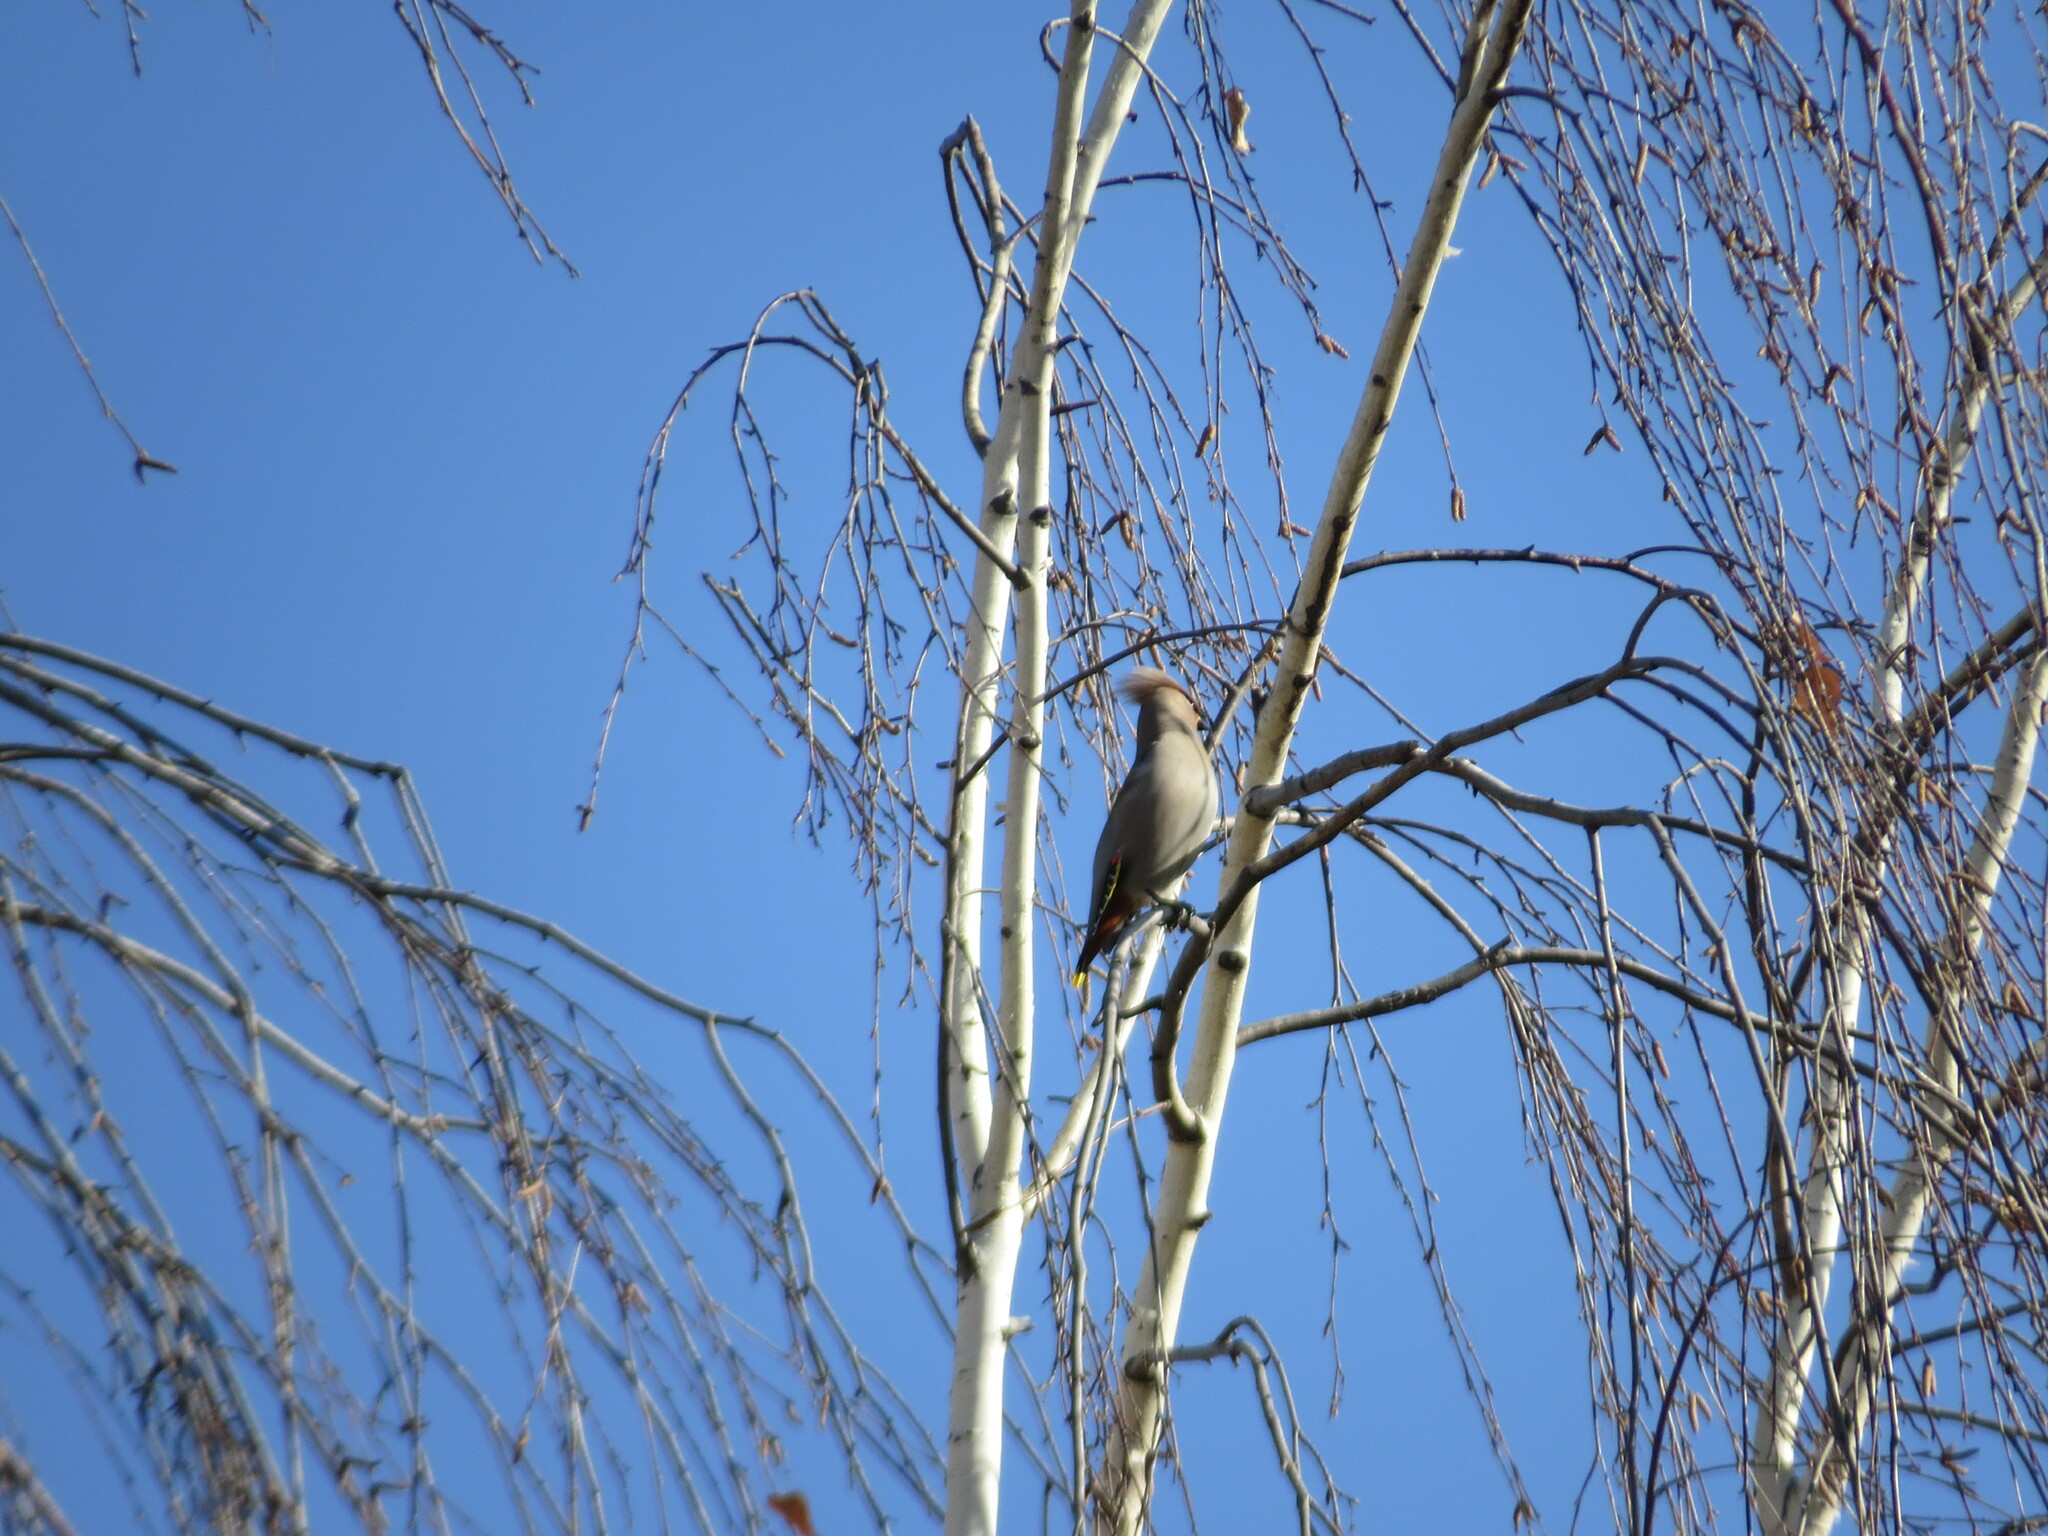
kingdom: Animalia
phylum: Chordata
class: Aves
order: Passeriformes
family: Bombycillidae
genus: Bombycilla
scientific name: Bombycilla garrulus
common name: Bohemian waxwing
